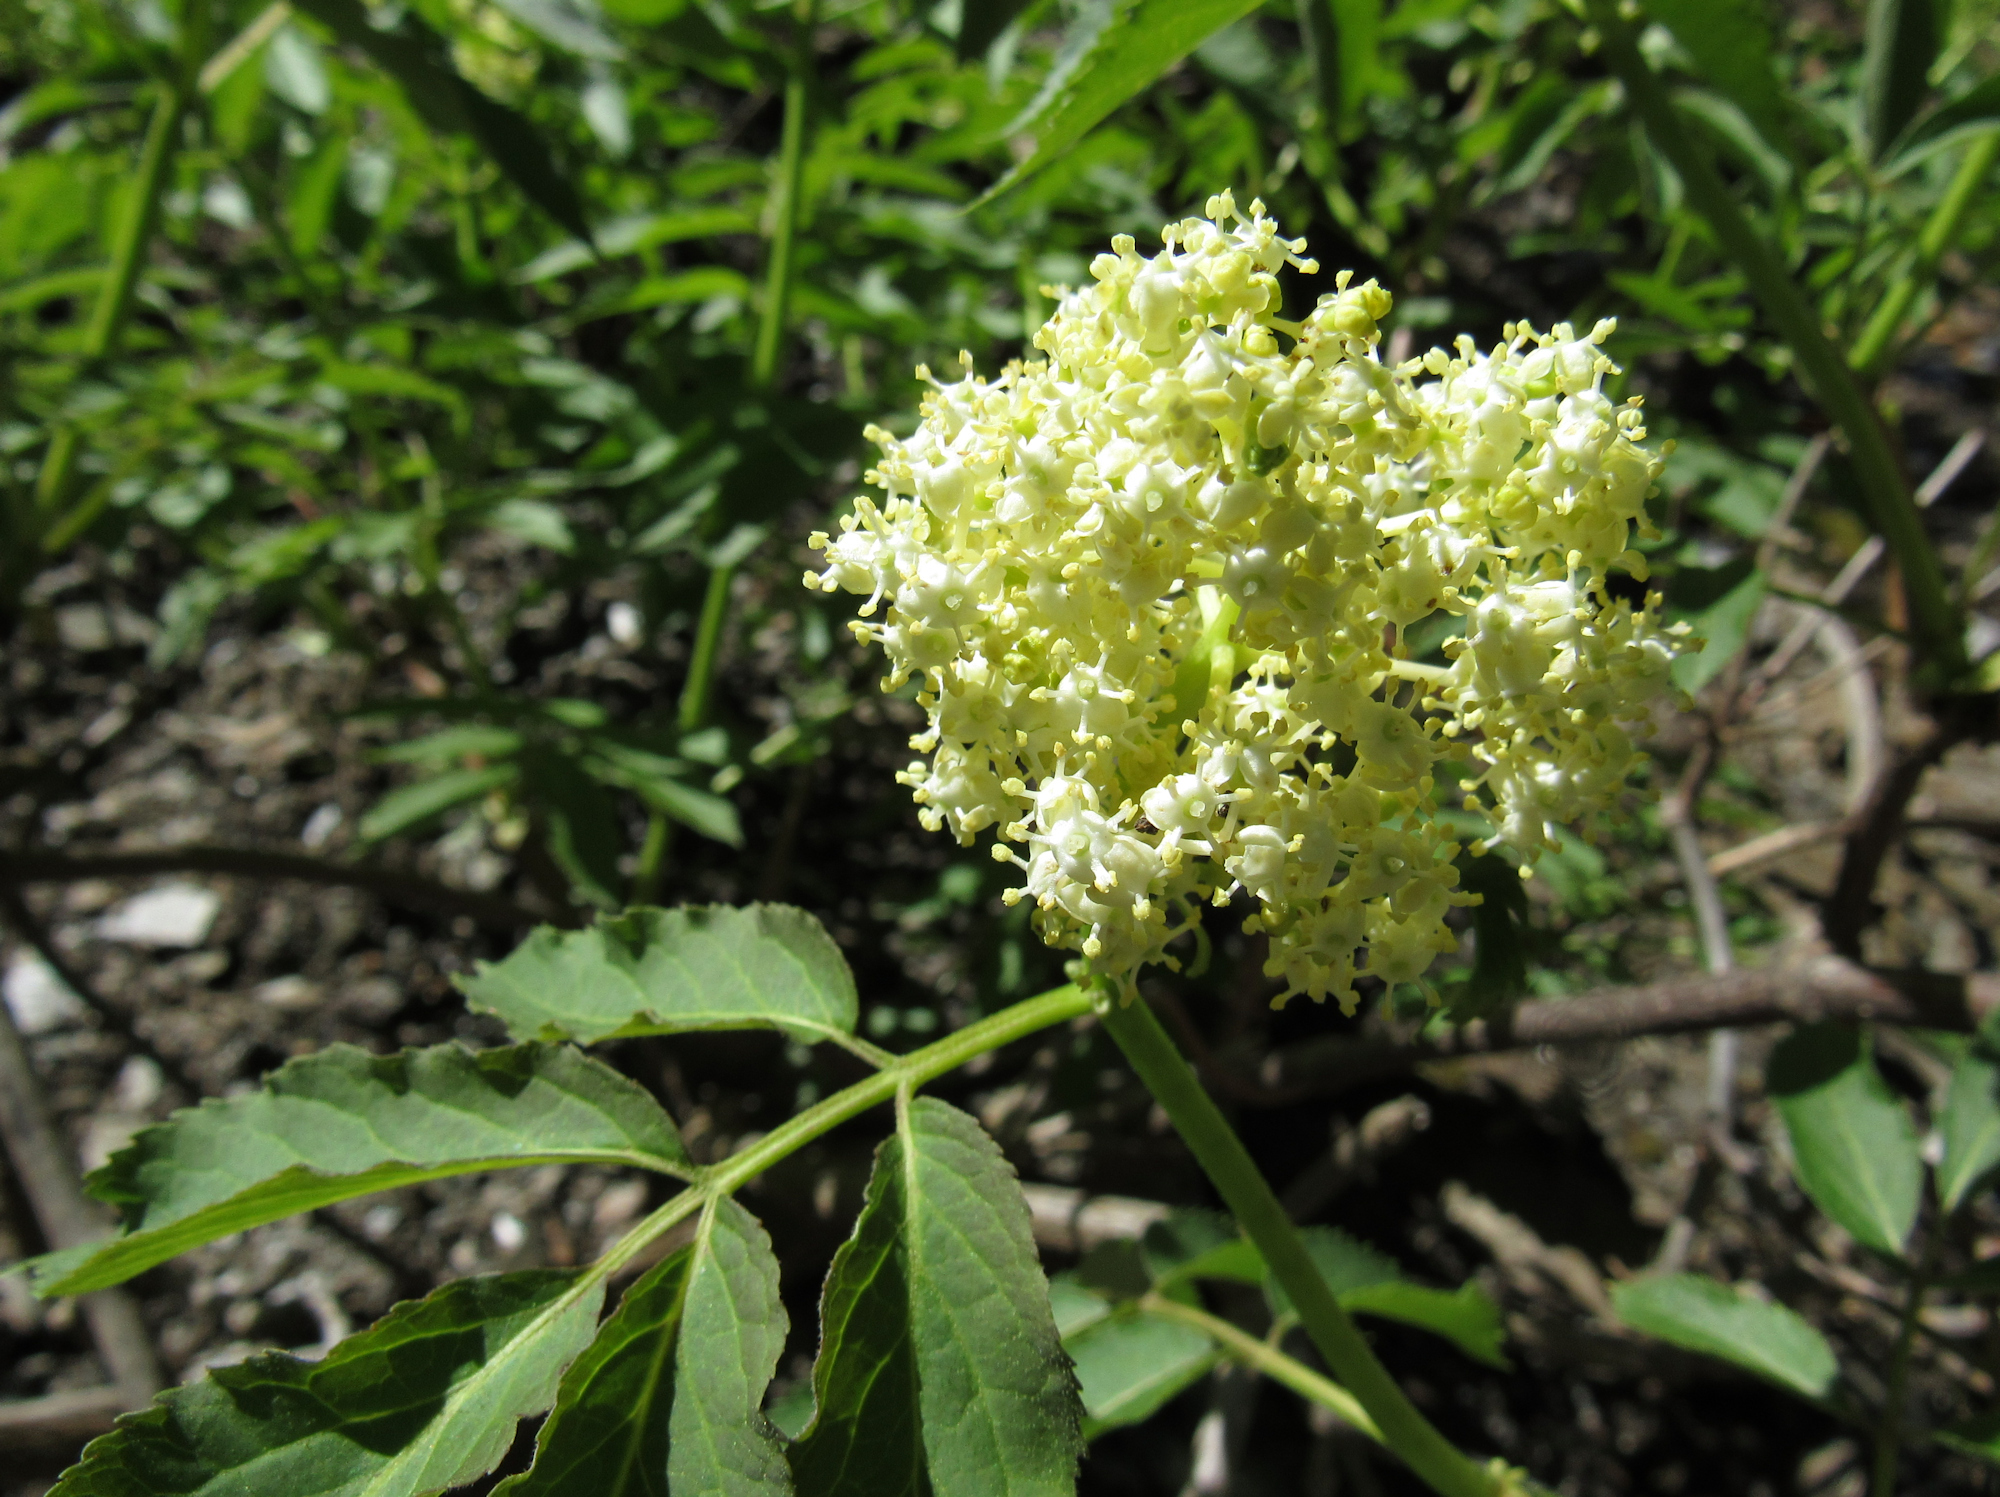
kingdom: Plantae
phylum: Tracheophyta
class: Magnoliopsida
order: Dipsacales
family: Viburnaceae
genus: Sambucus
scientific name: Sambucus racemosa
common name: Red-berried elder
